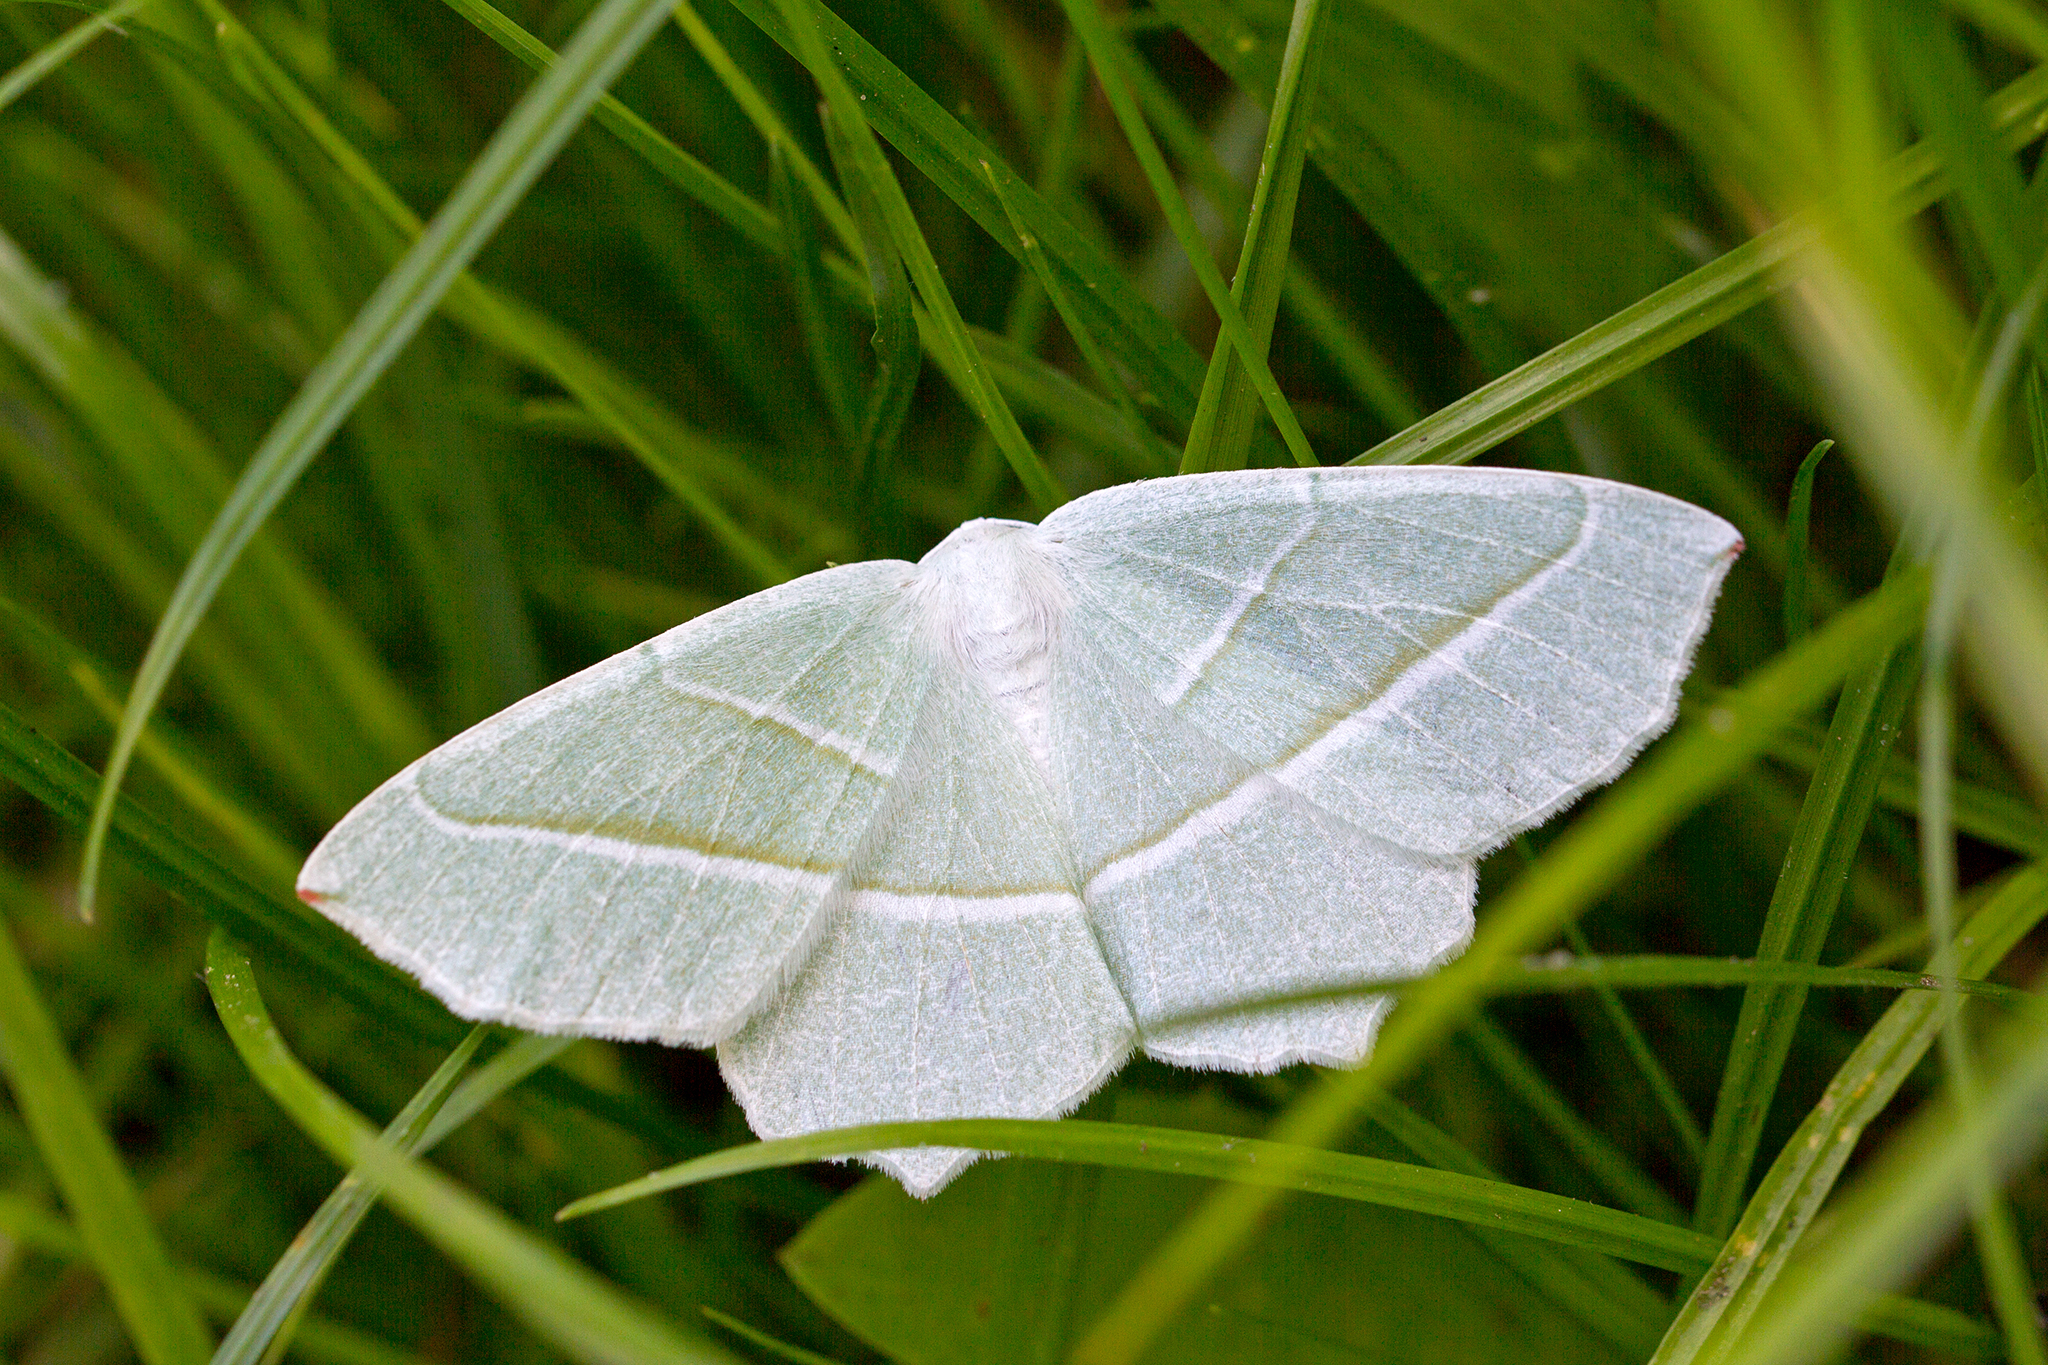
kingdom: Animalia
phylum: Arthropoda
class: Insecta
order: Lepidoptera
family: Geometridae
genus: Campaea
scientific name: Campaea margaritaria
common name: Light emerald
